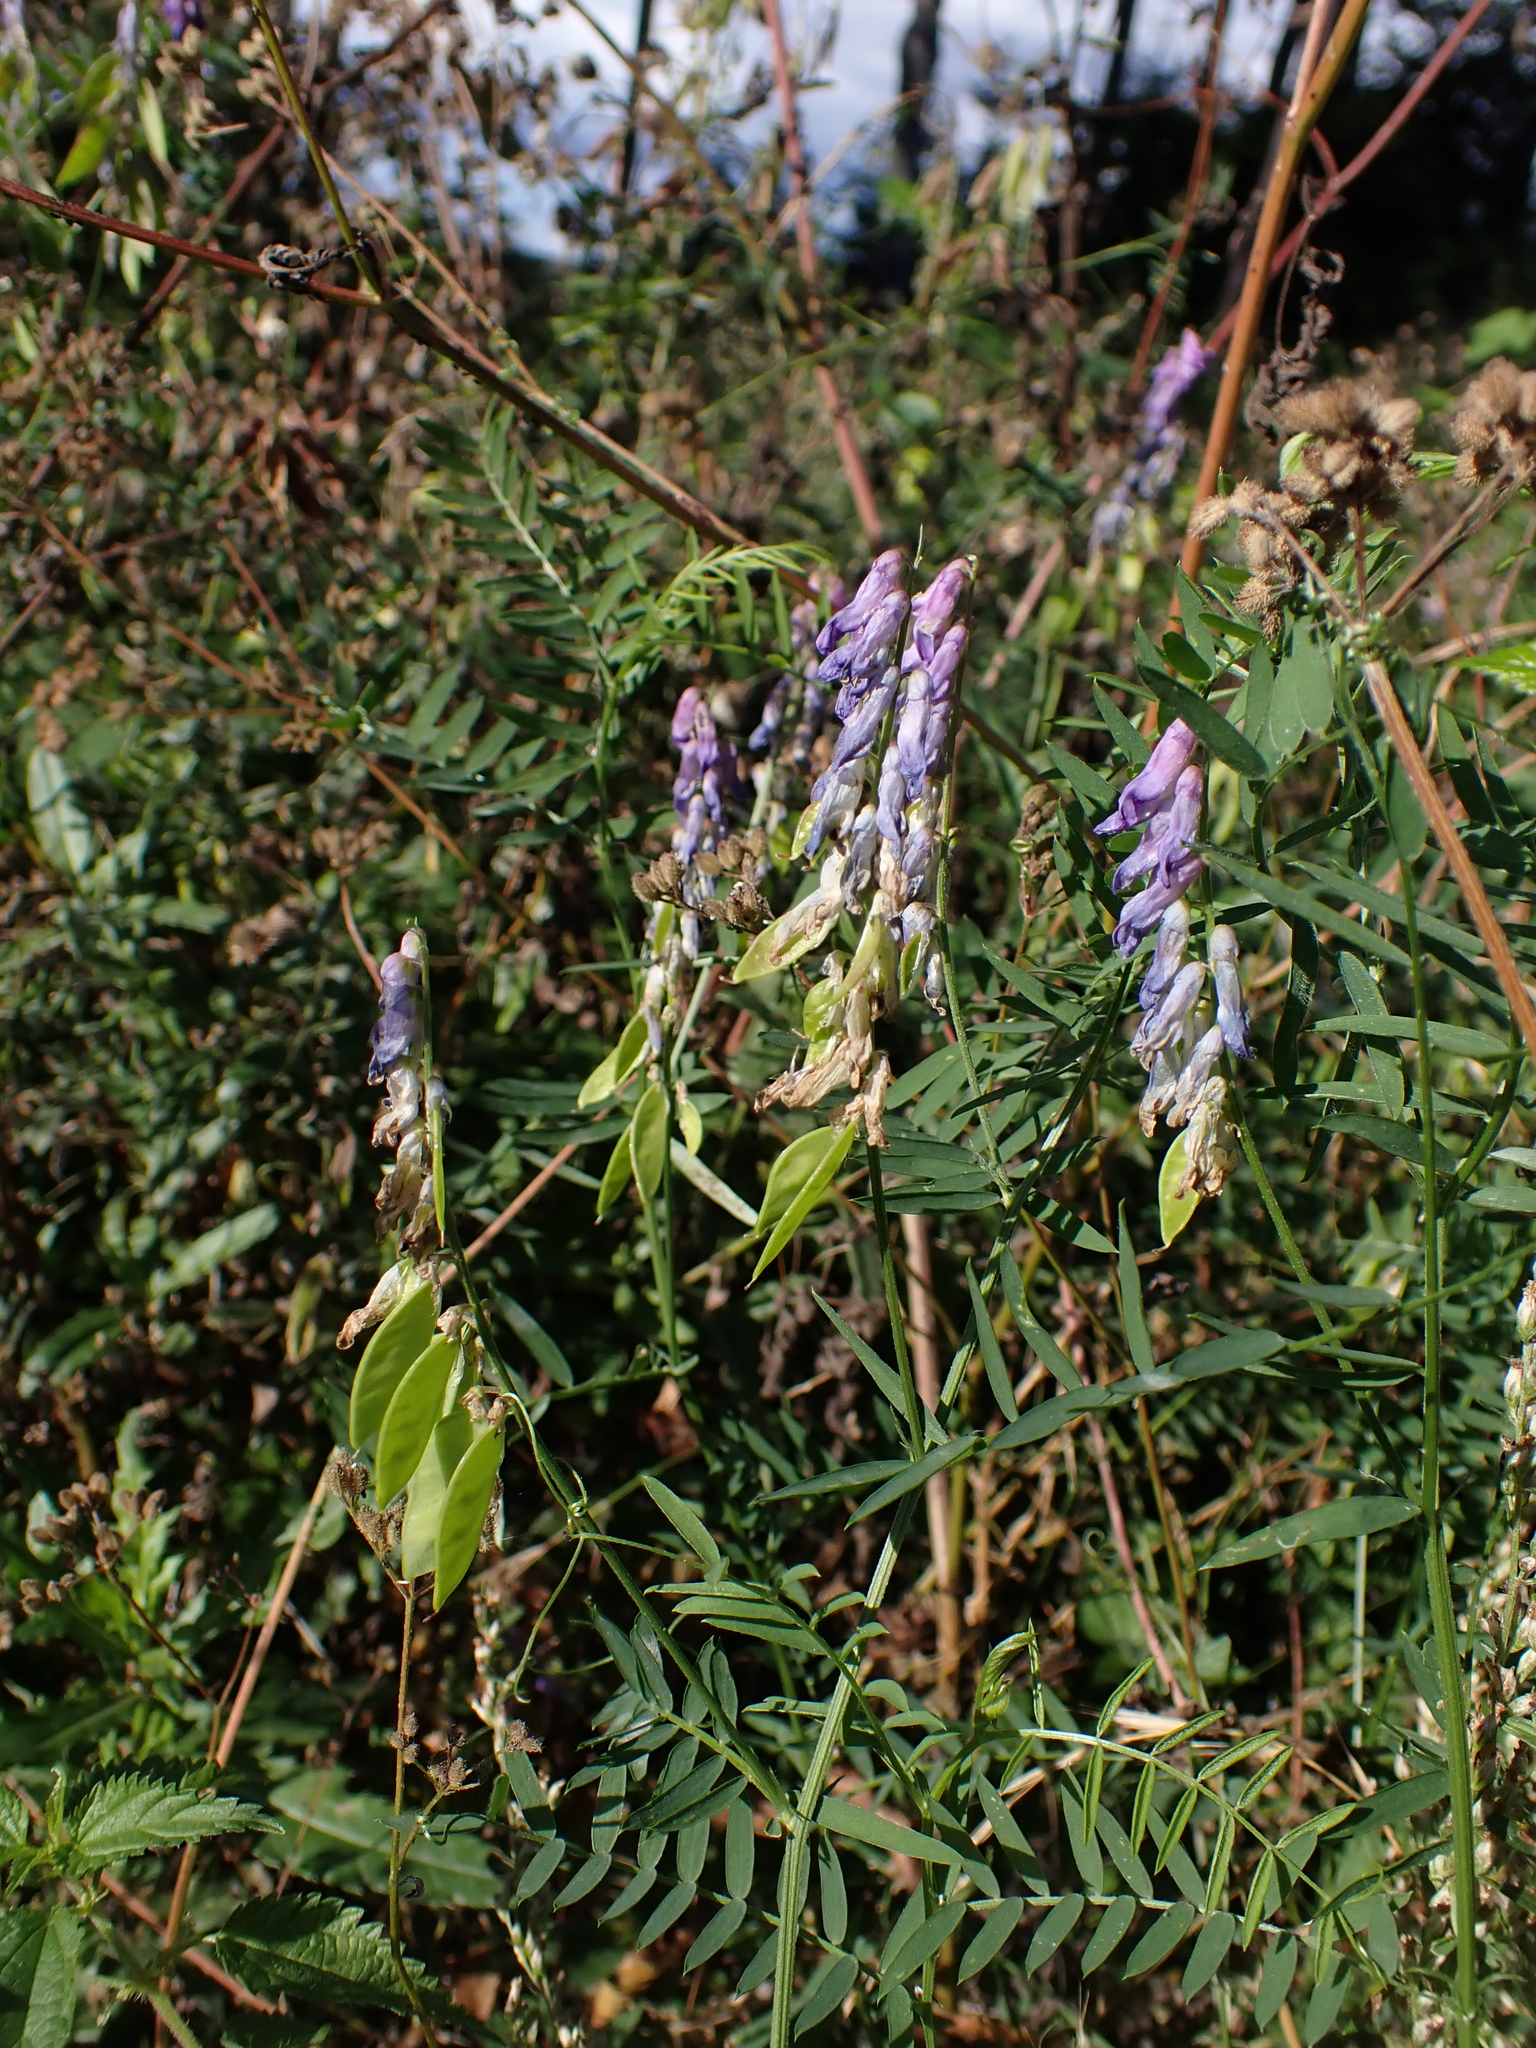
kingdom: Plantae
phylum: Tracheophyta
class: Magnoliopsida
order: Fabales
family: Fabaceae
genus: Vicia
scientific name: Vicia cracca
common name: Bird vetch
